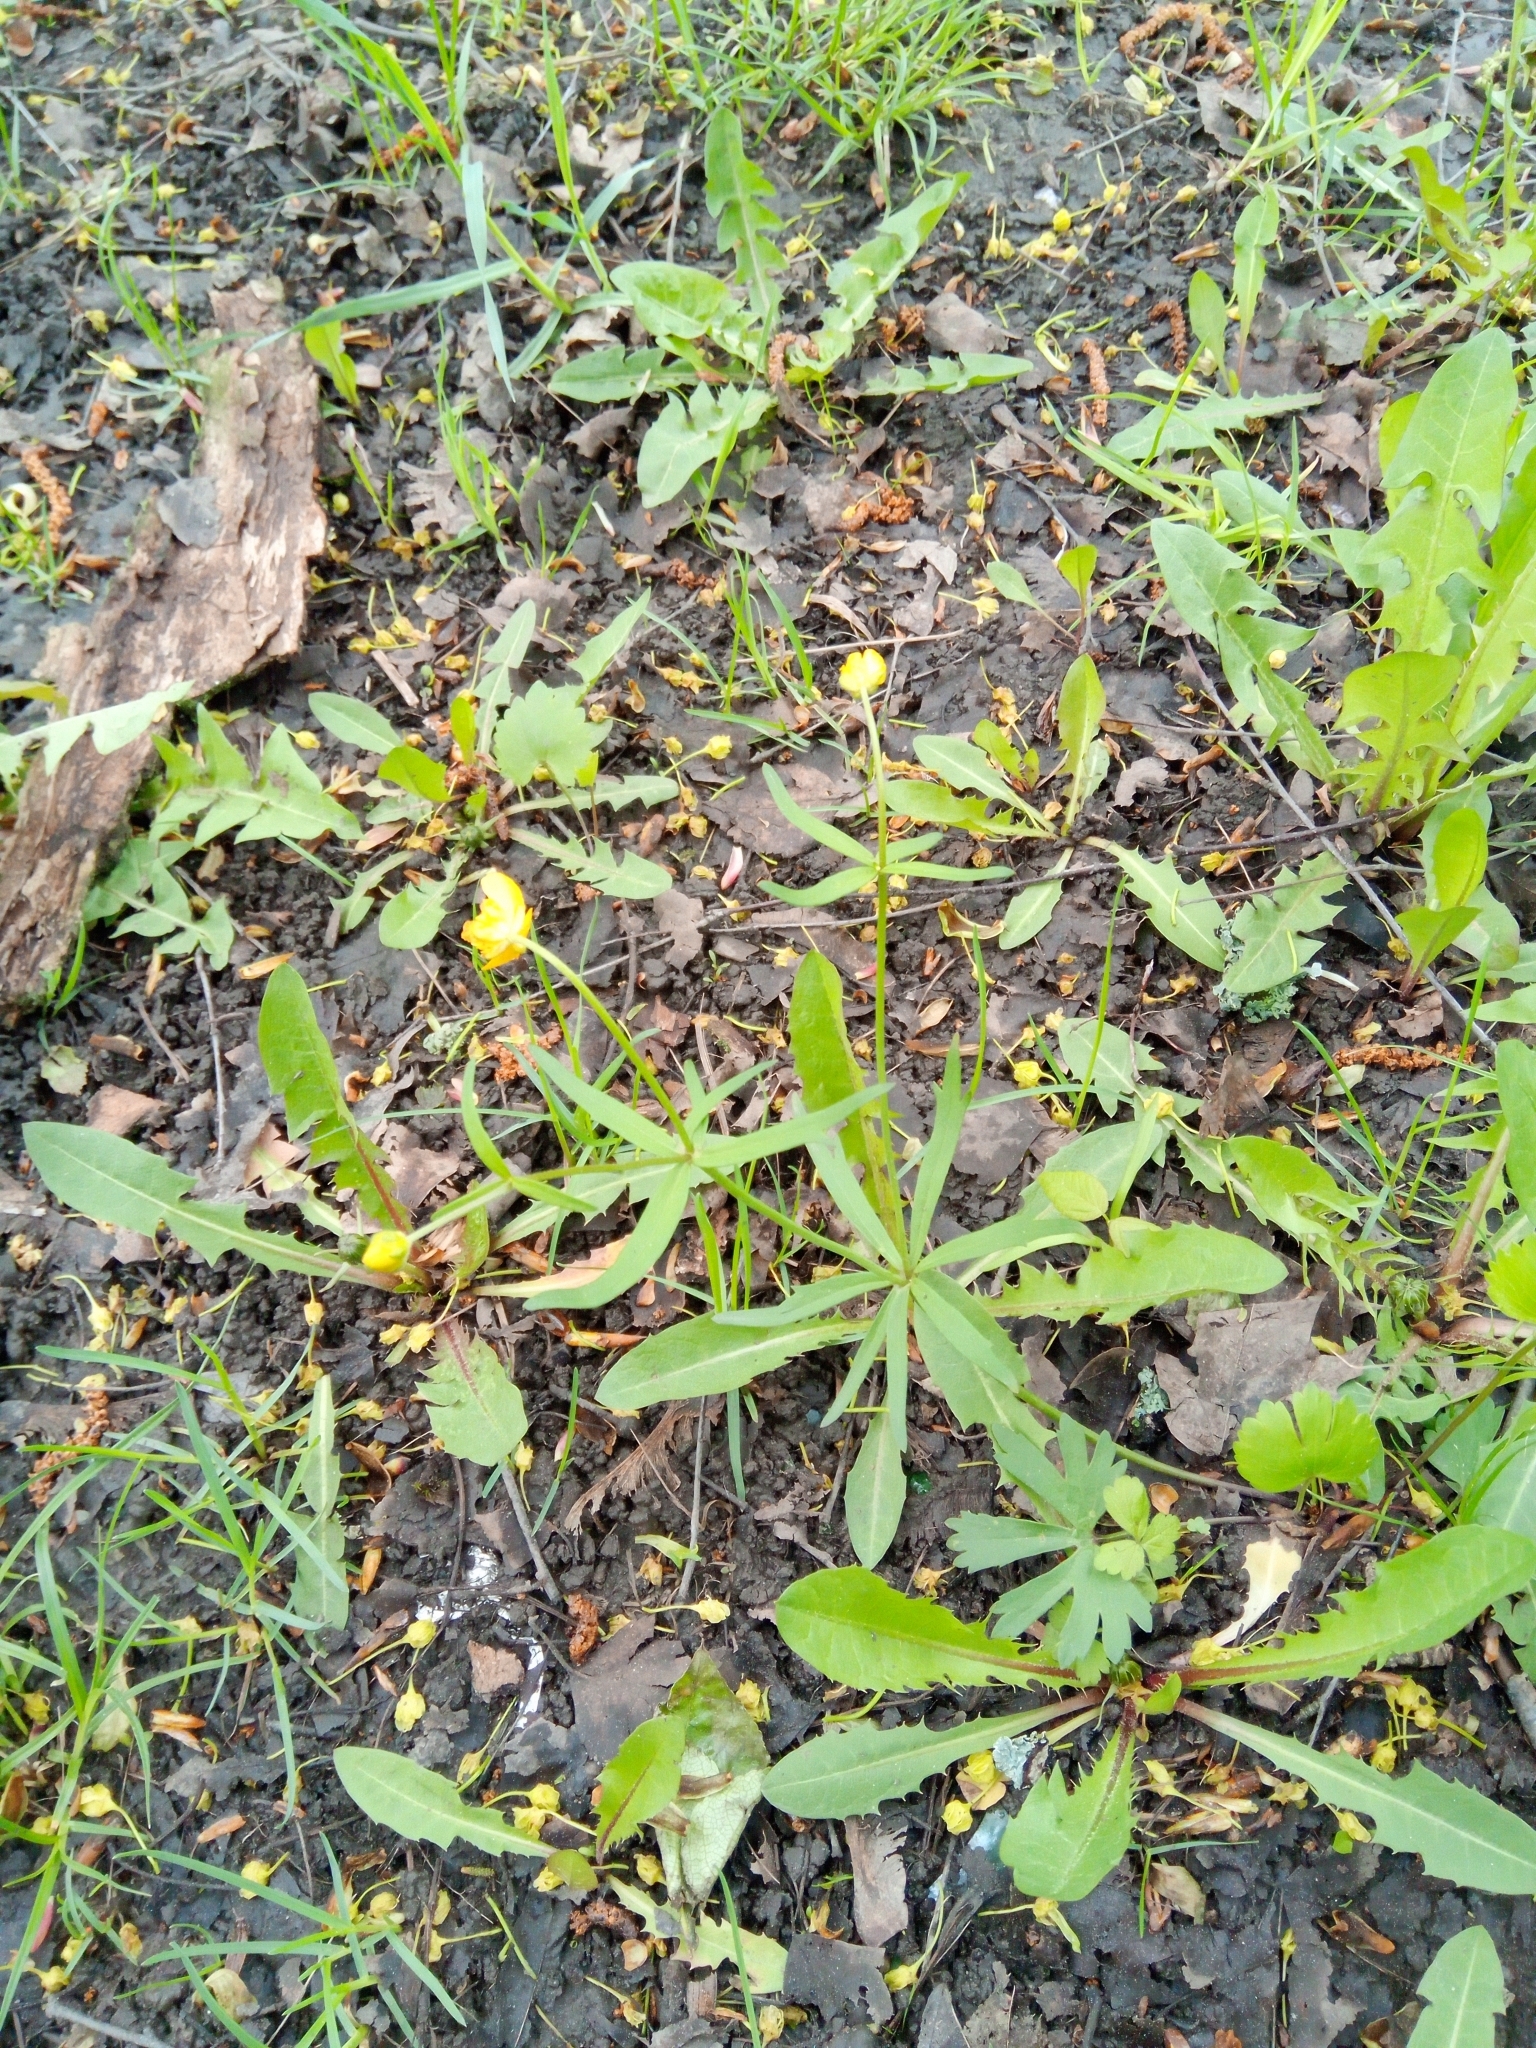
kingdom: Plantae
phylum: Tracheophyta
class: Magnoliopsida
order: Ranunculales
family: Ranunculaceae
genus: Ranunculus
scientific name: Ranunculus auricomus
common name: Goldilocks buttercup
